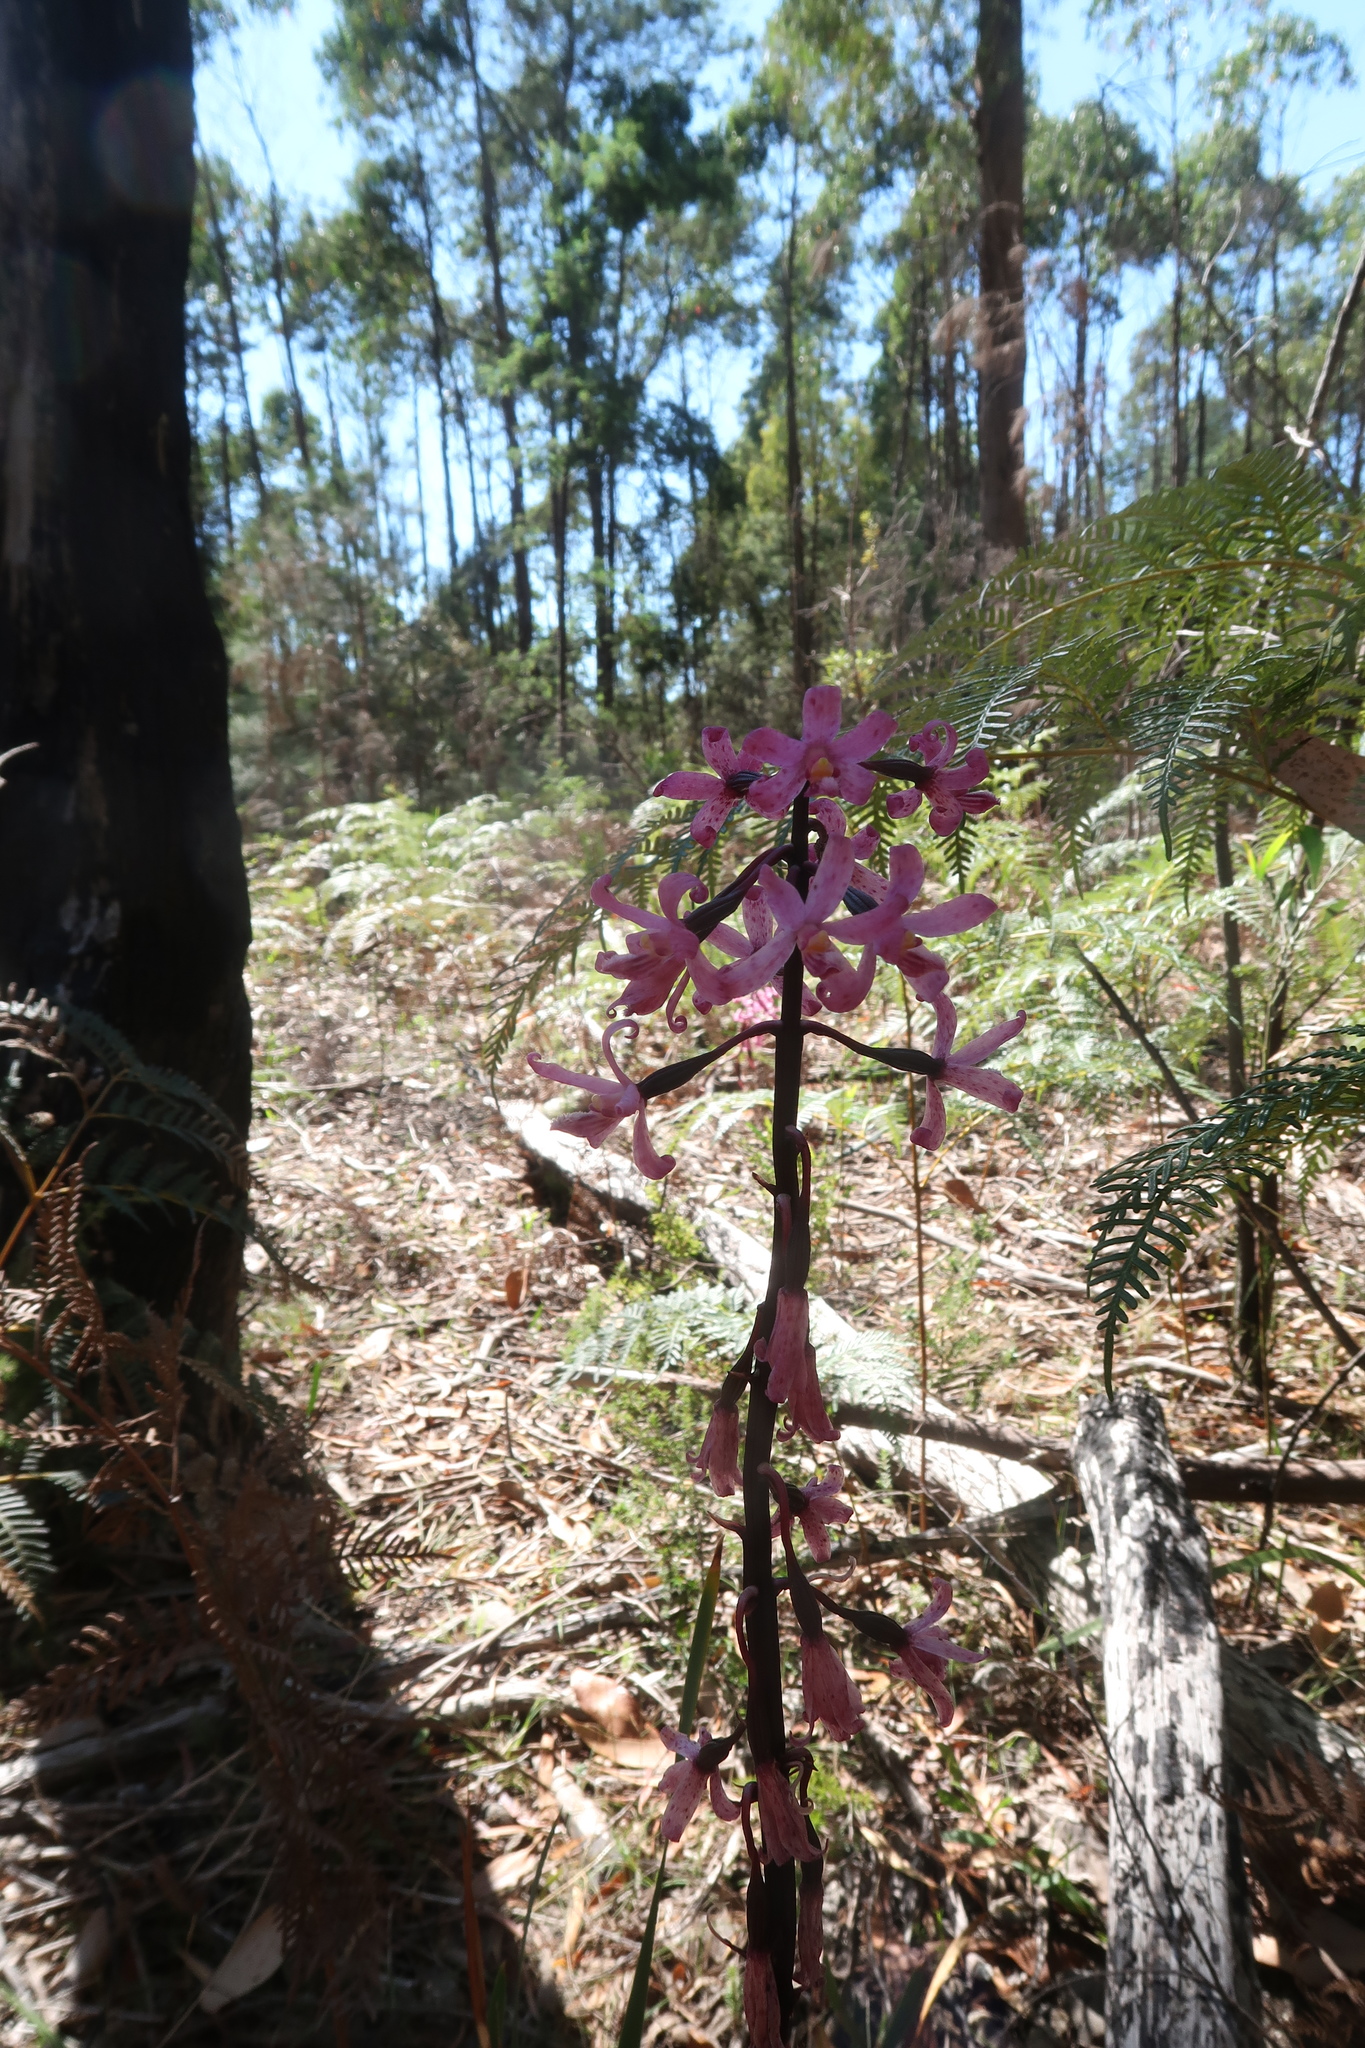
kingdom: Plantae
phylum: Tracheophyta
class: Liliopsida
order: Asparagales
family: Orchidaceae
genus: Dipodium
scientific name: Dipodium roseum
